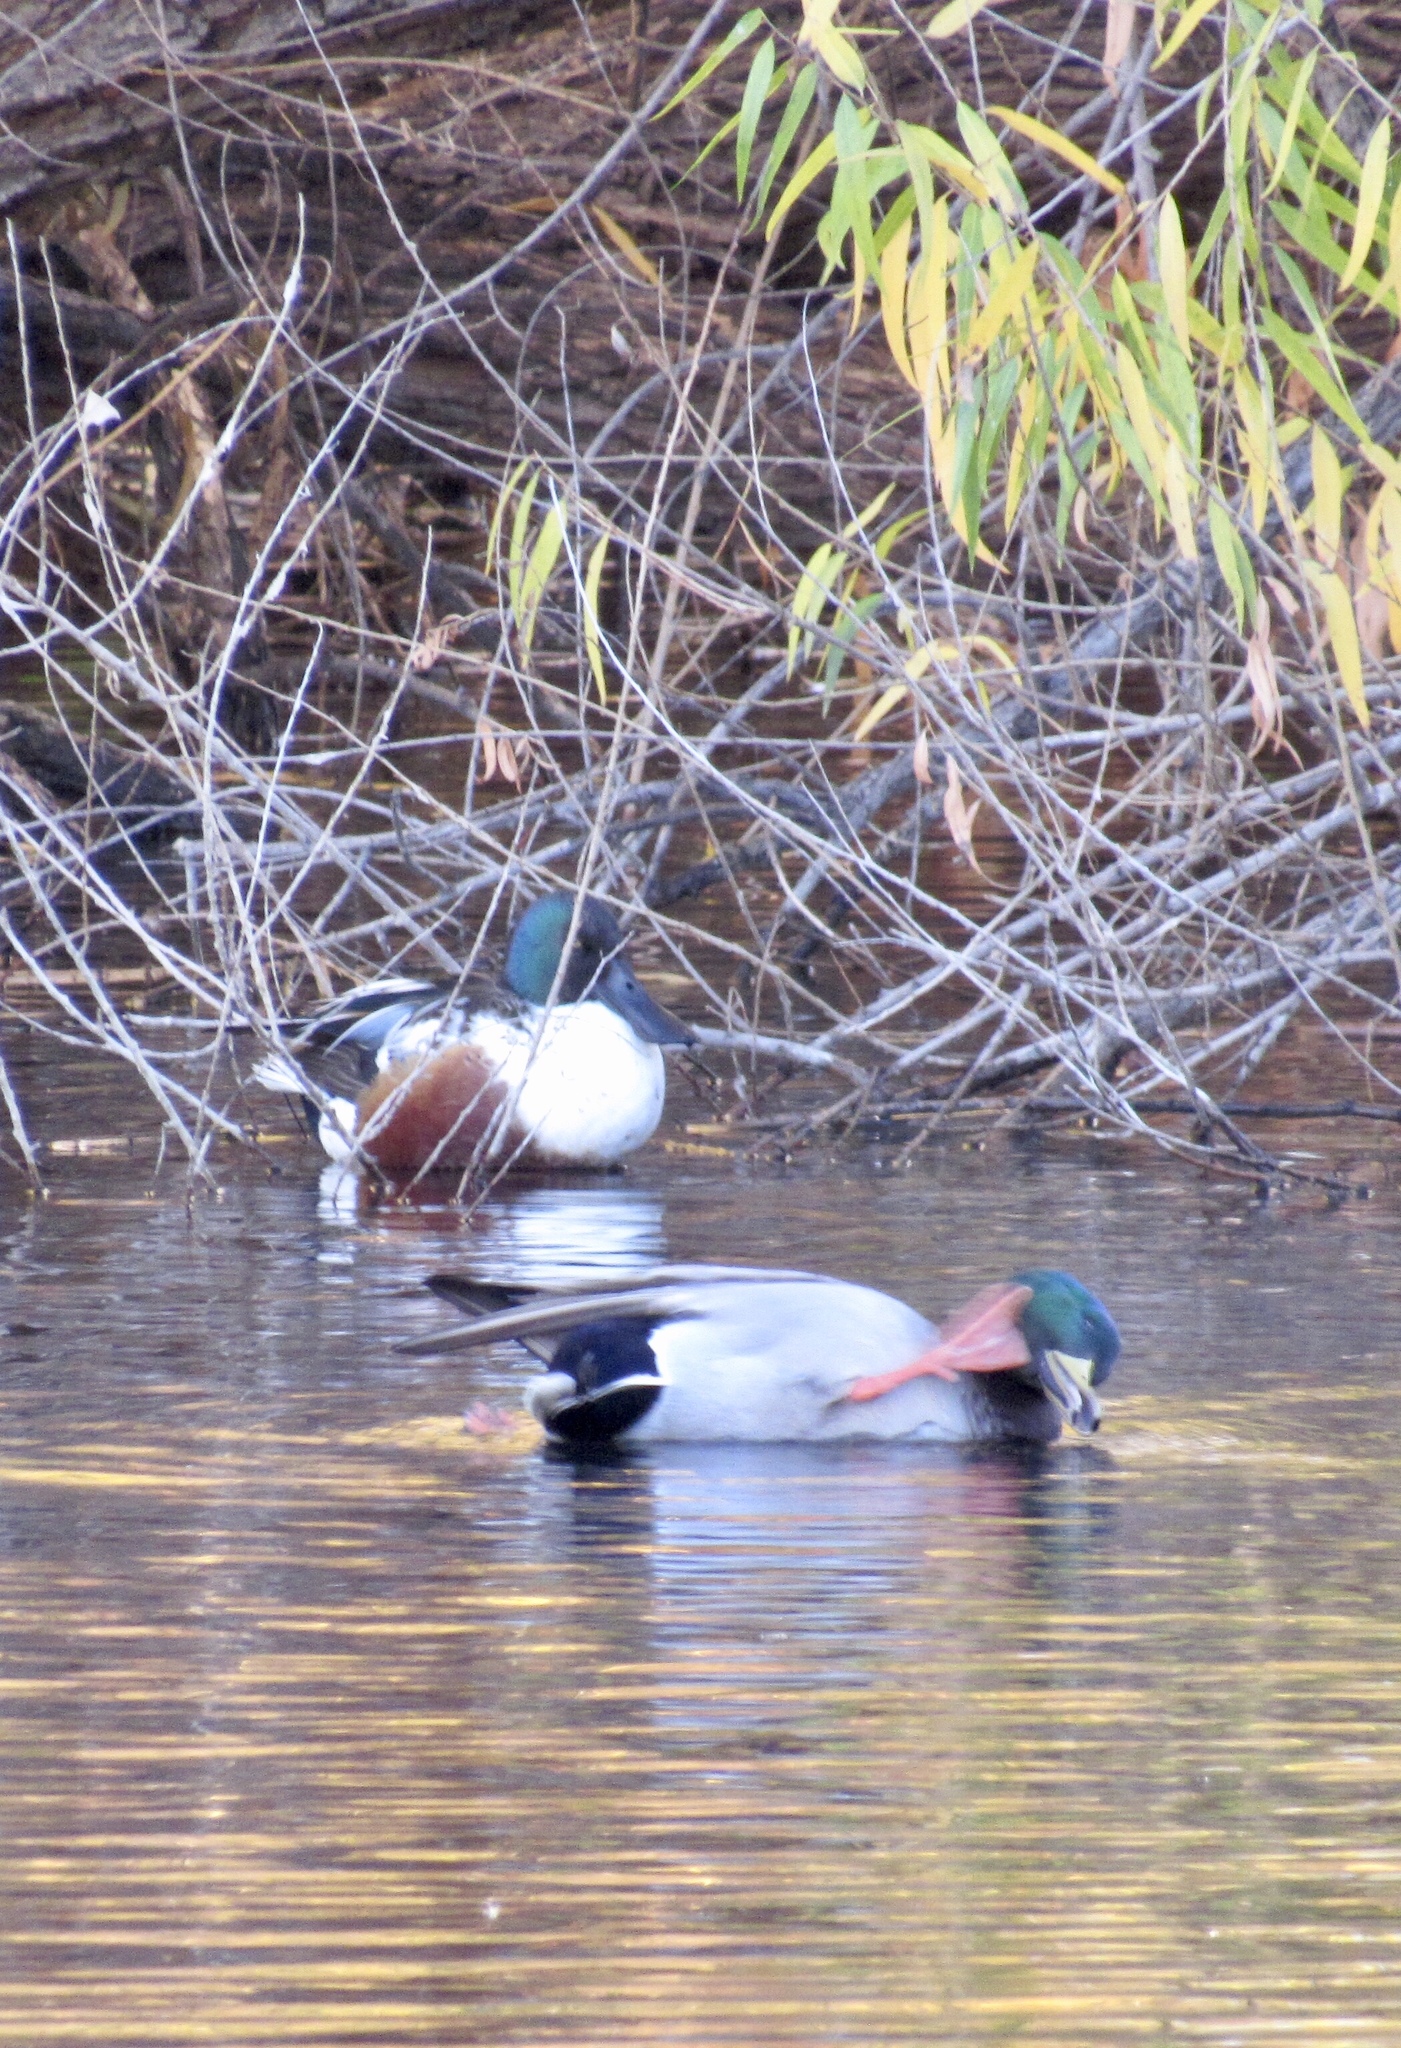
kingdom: Animalia
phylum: Chordata
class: Aves
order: Anseriformes
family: Anatidae
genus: Spatula
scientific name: Spatula clypeata
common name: Northern shoveler
